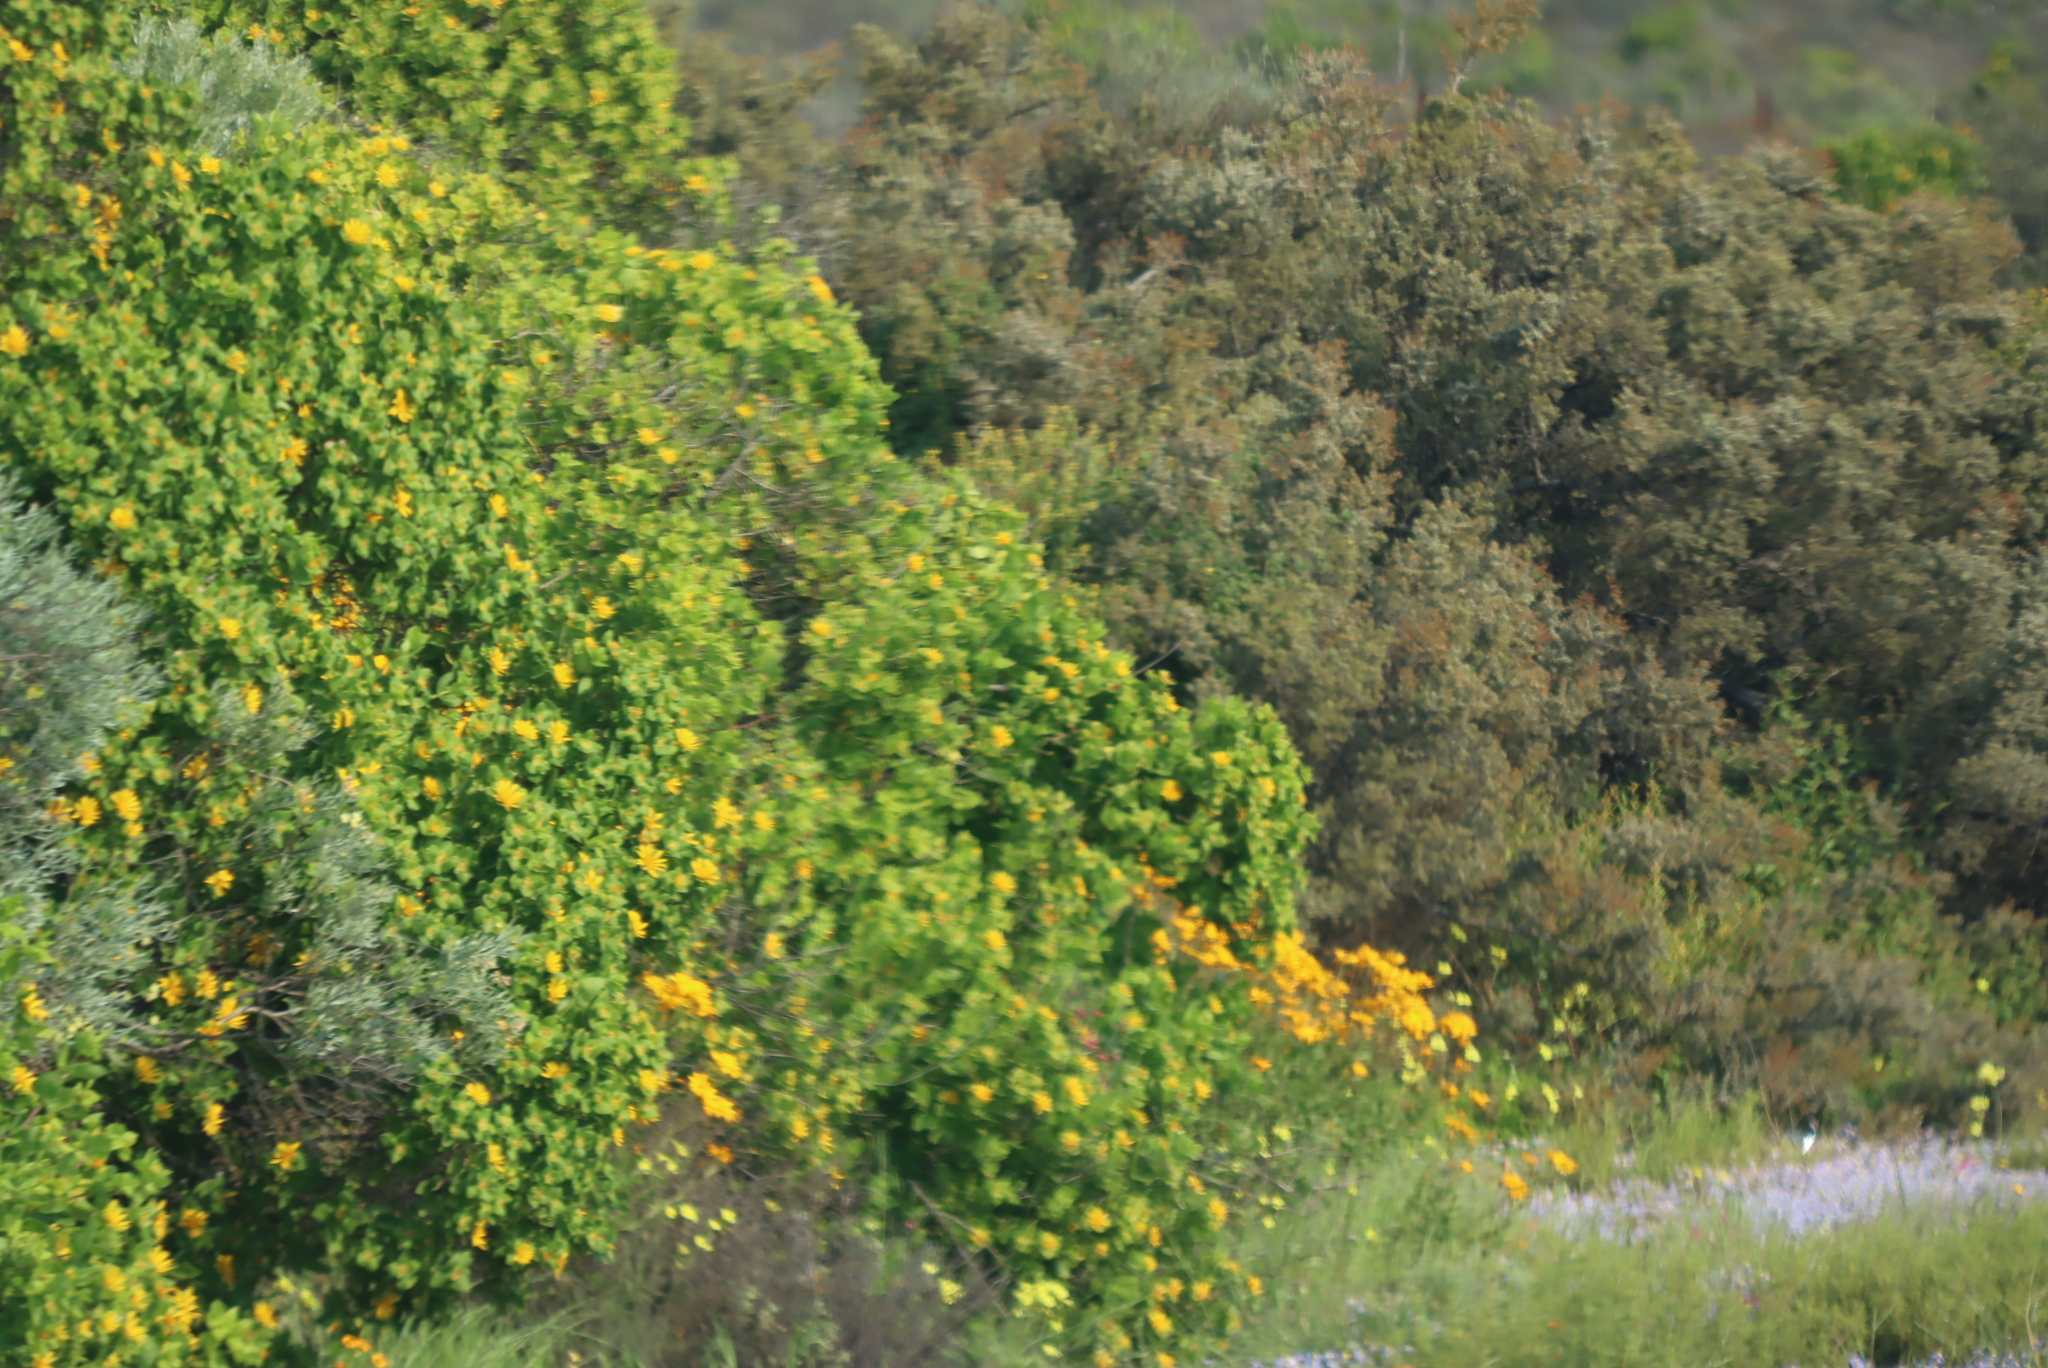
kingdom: Plantae
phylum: Tracheophyta
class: Magnoliopsida
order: Asterales
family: Asteraceae
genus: Didelta
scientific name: Didelta spinosa
